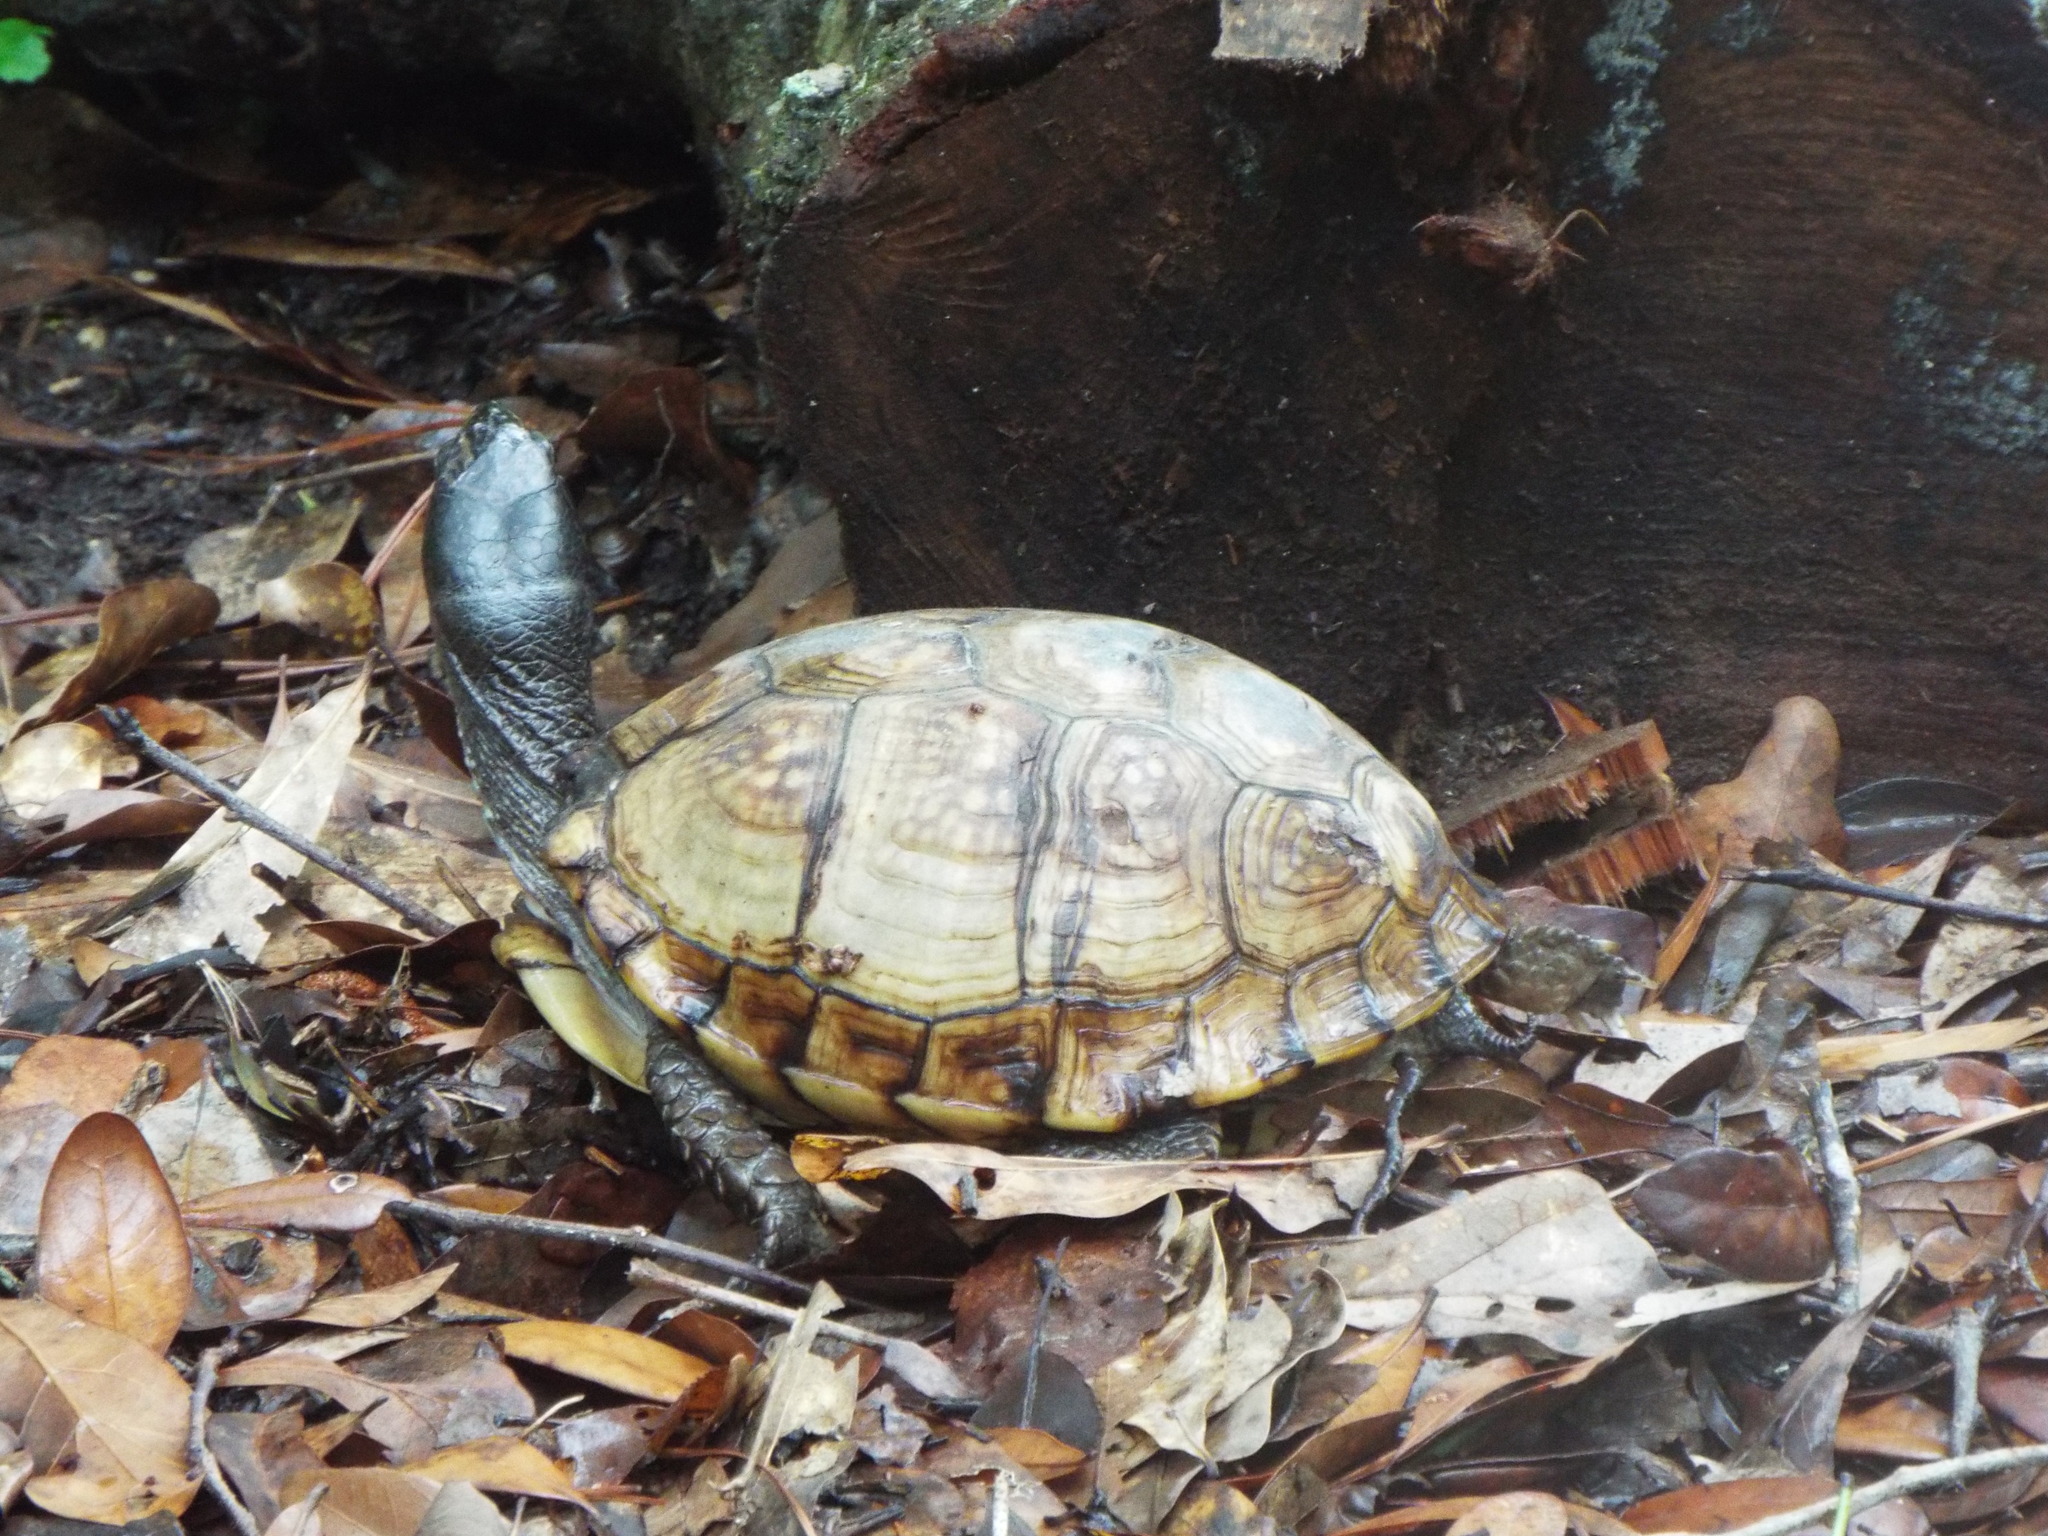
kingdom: Animalia
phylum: Chordata
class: Testudines
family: Emydidae
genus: Terrapene
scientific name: Terrapene carolina
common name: Common box turtle
